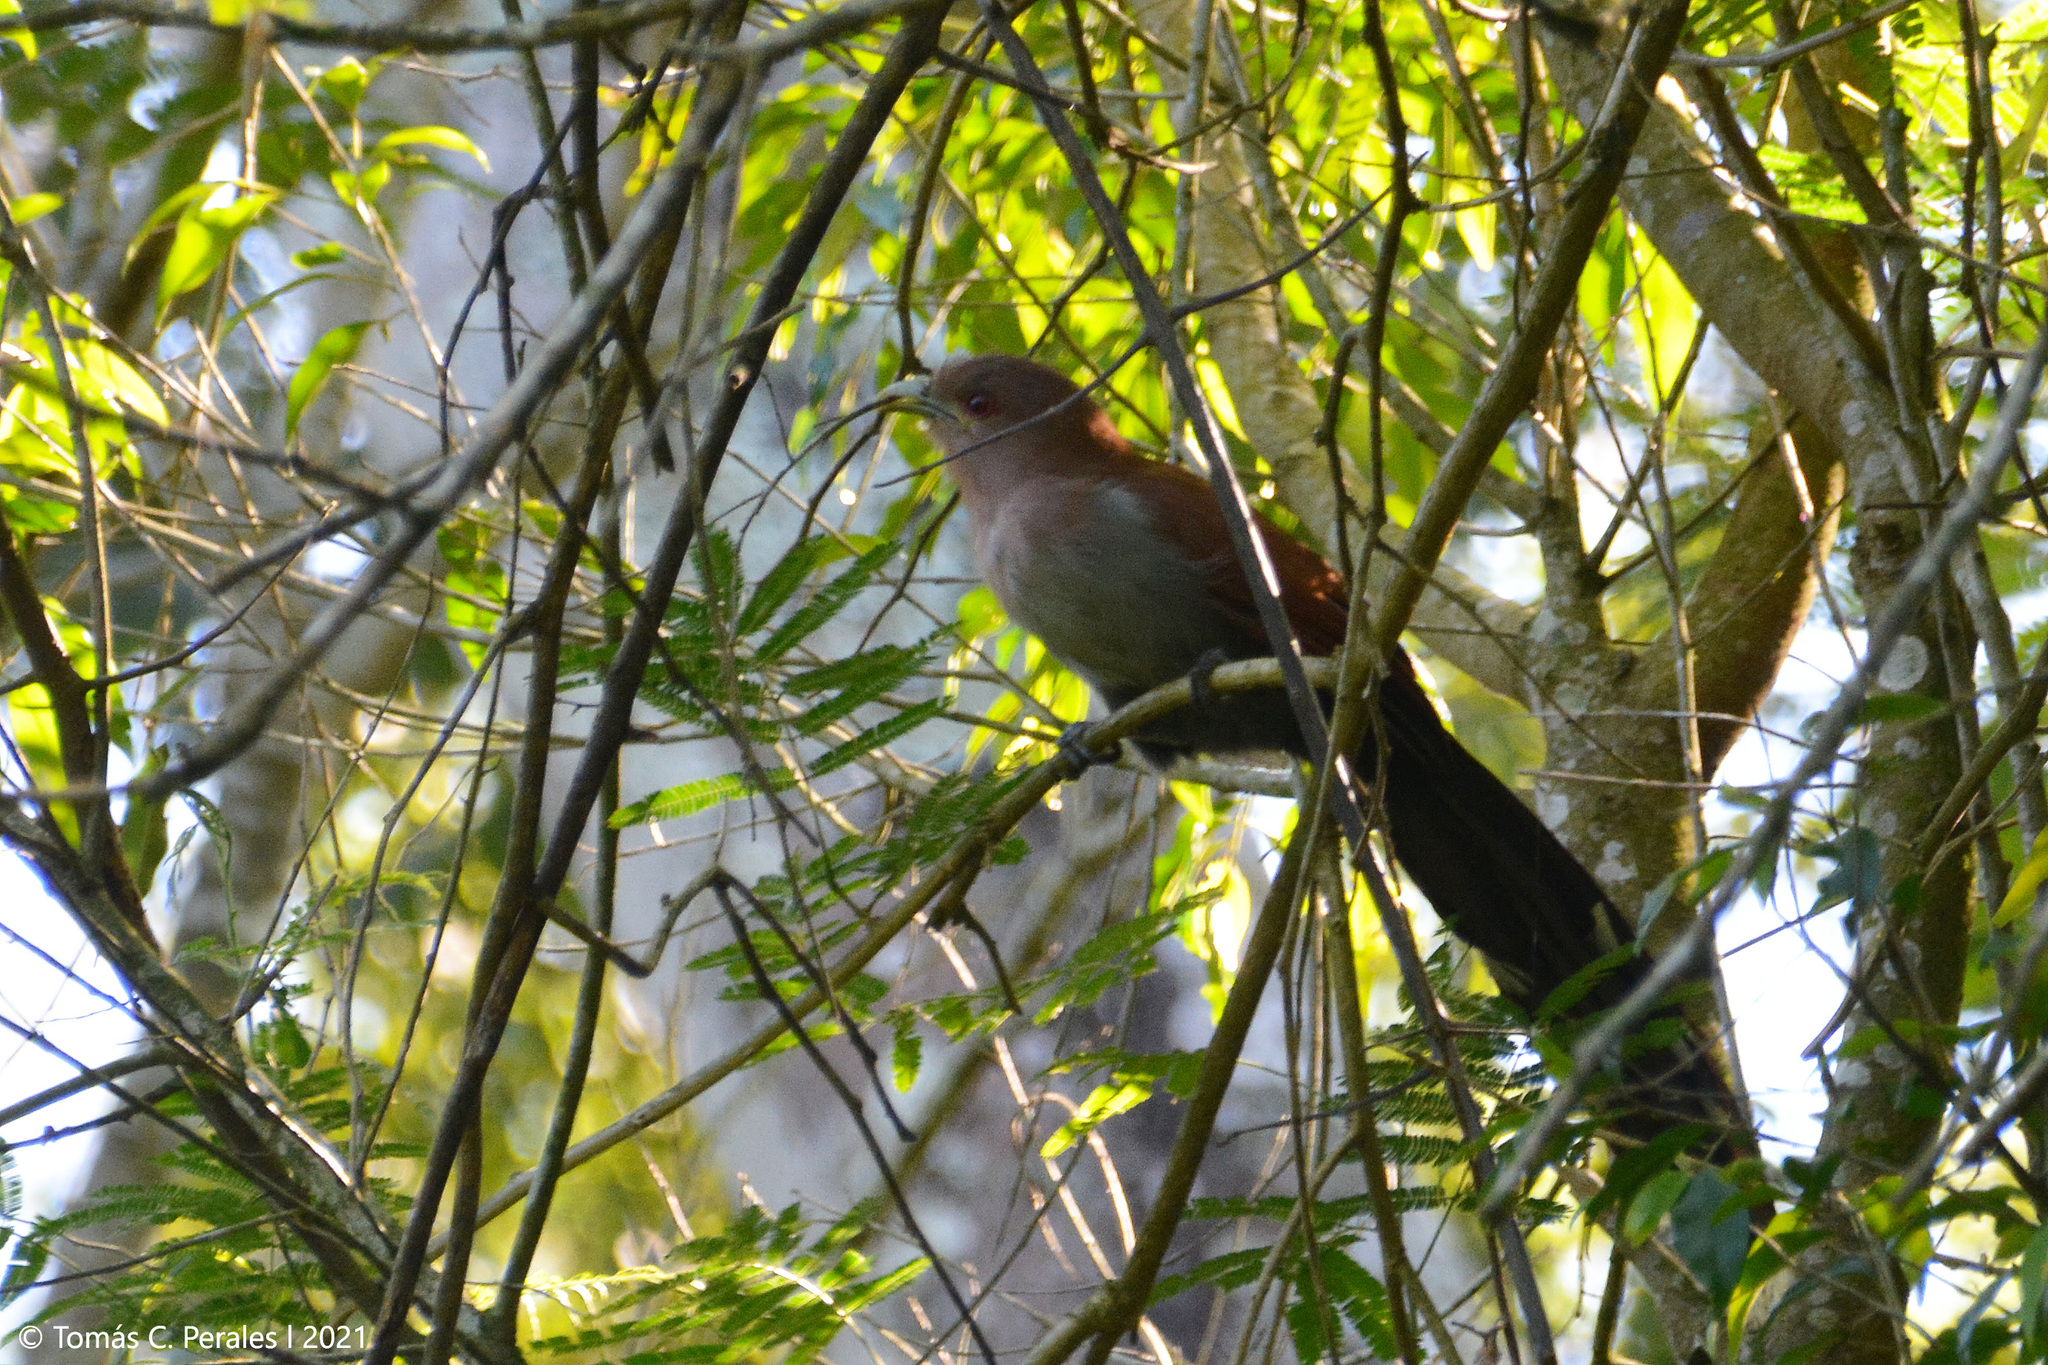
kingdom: Animalia
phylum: Chordata
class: Aves
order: Cuculiformes
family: Cuculidae
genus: Piaya
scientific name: Piaya cayana
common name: Squirrel cuckoo
